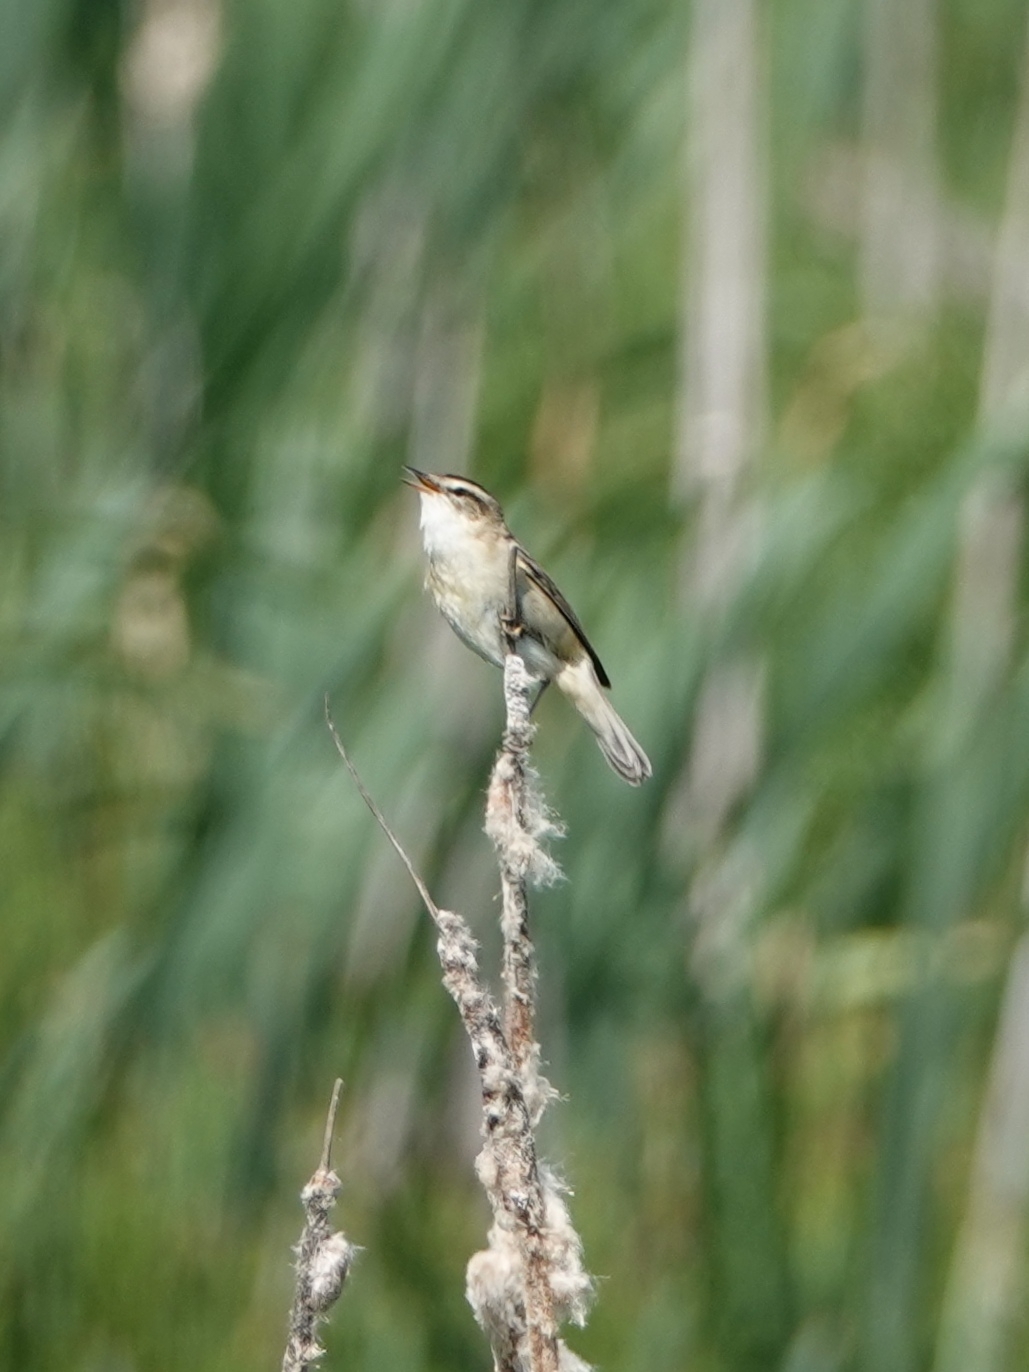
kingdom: Animalia
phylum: Chordata
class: Aves
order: Passeriformes
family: Acrocephalidae
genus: Acrocephalus
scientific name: Acrocephalus schoenobaenus
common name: Sedge warbler
